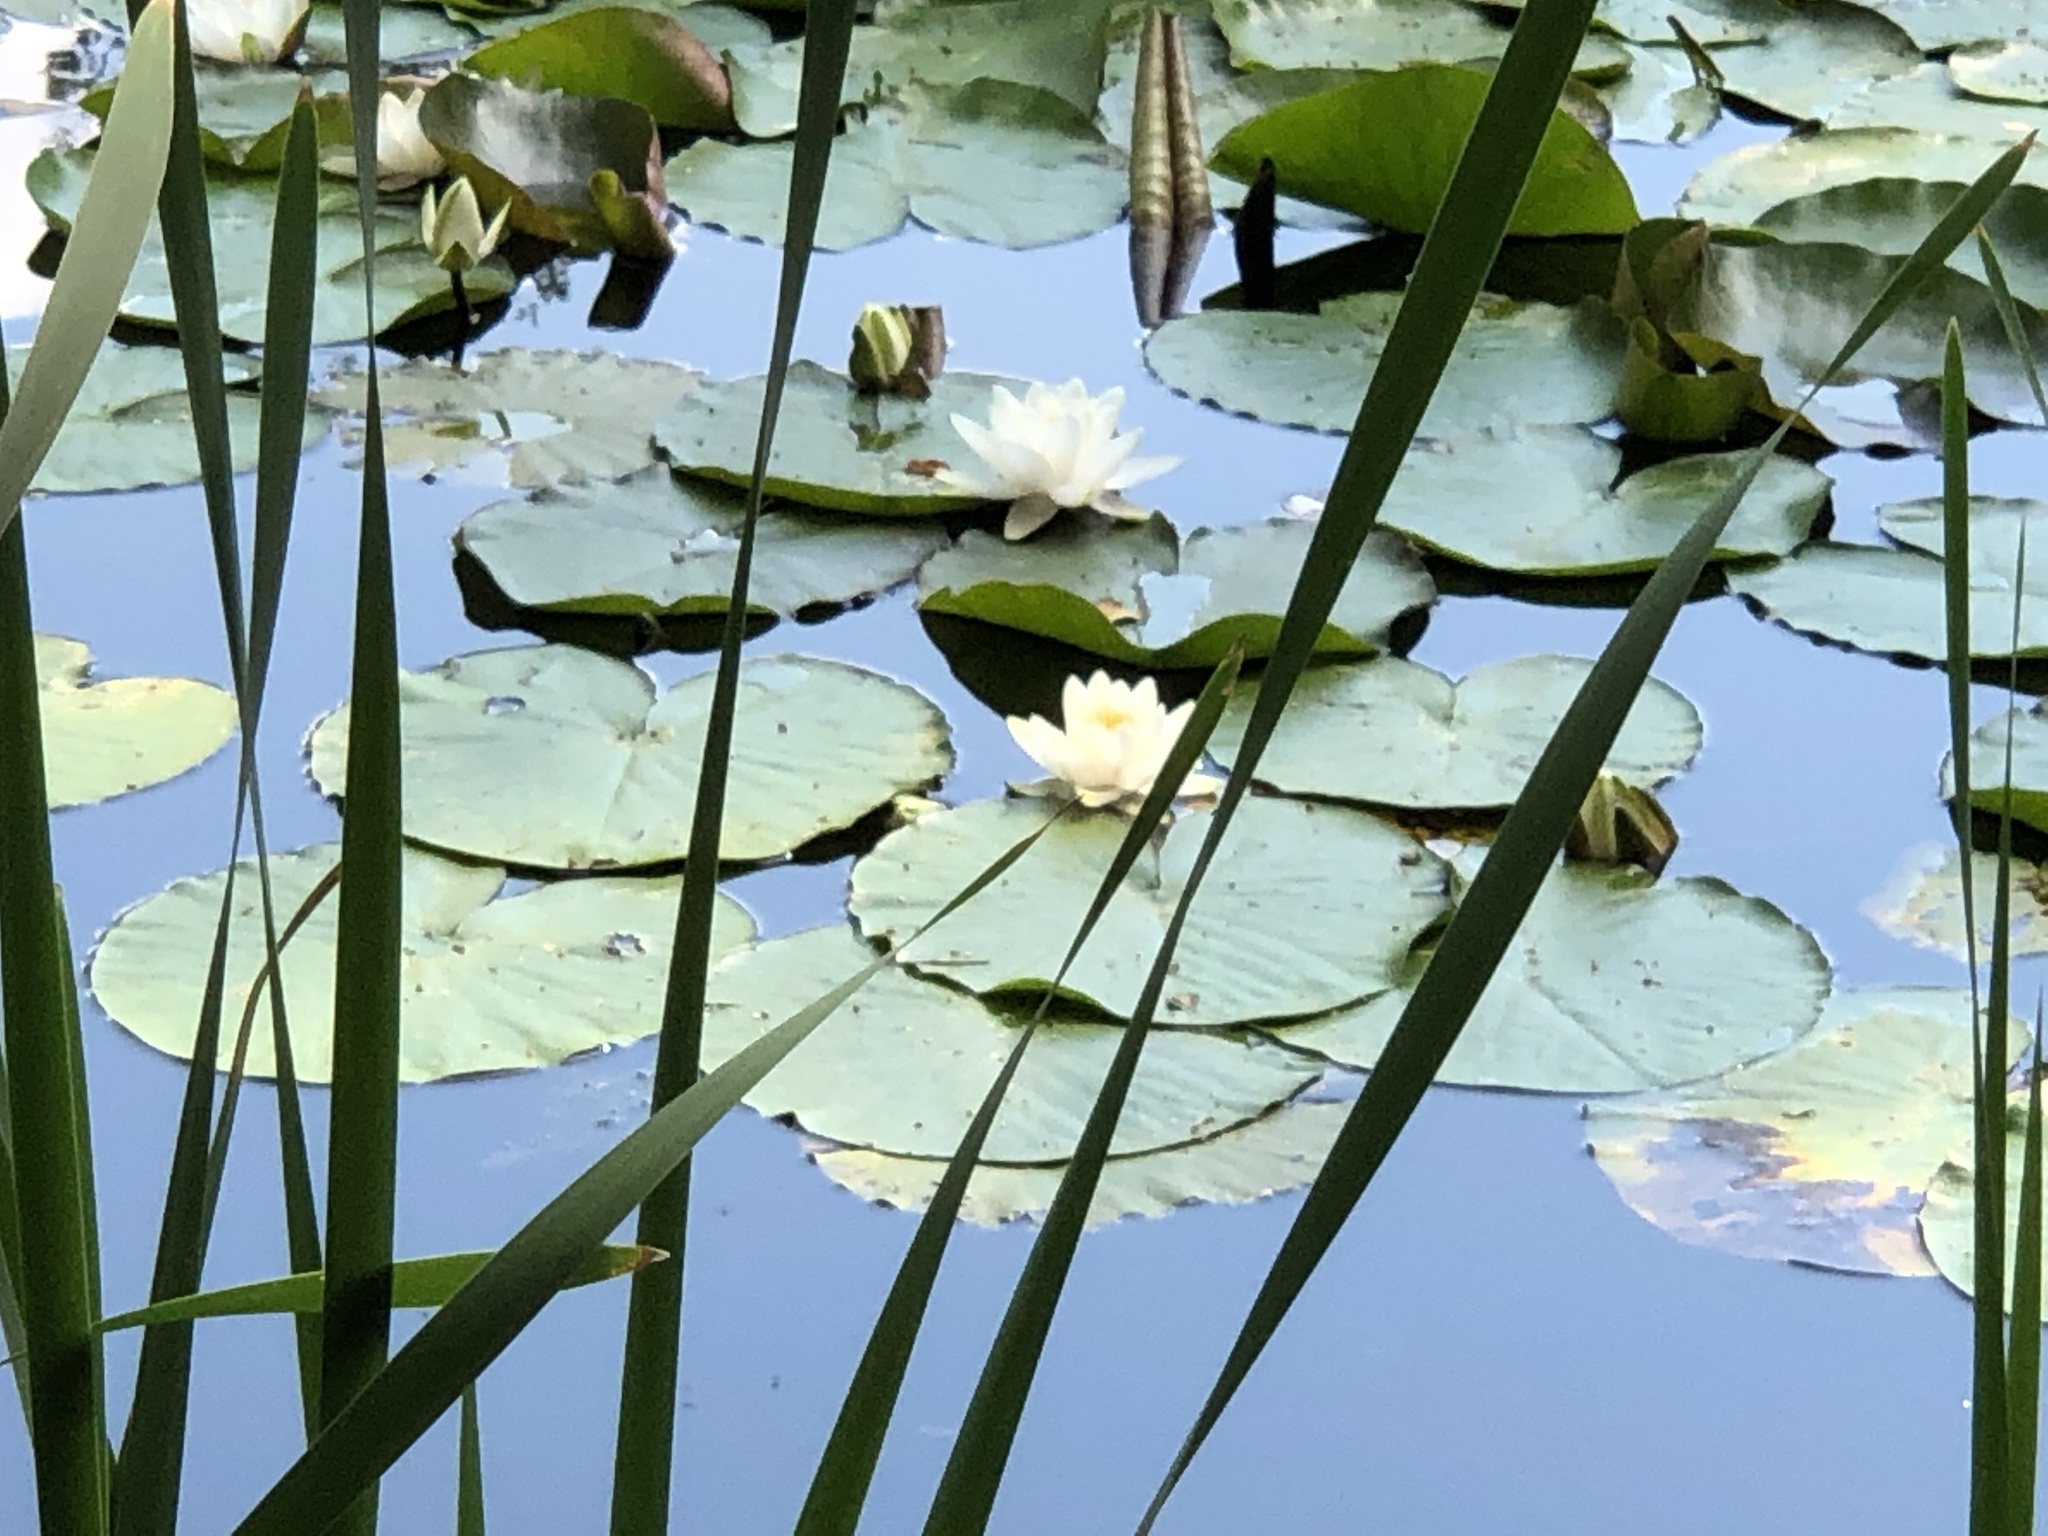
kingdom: Plantae
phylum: Tracheophyta
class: Magnoliopsida
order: Nymphaeales
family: Nymphaeaceae
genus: Nymphaea
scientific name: Nymphaea alba
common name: White water-lily
